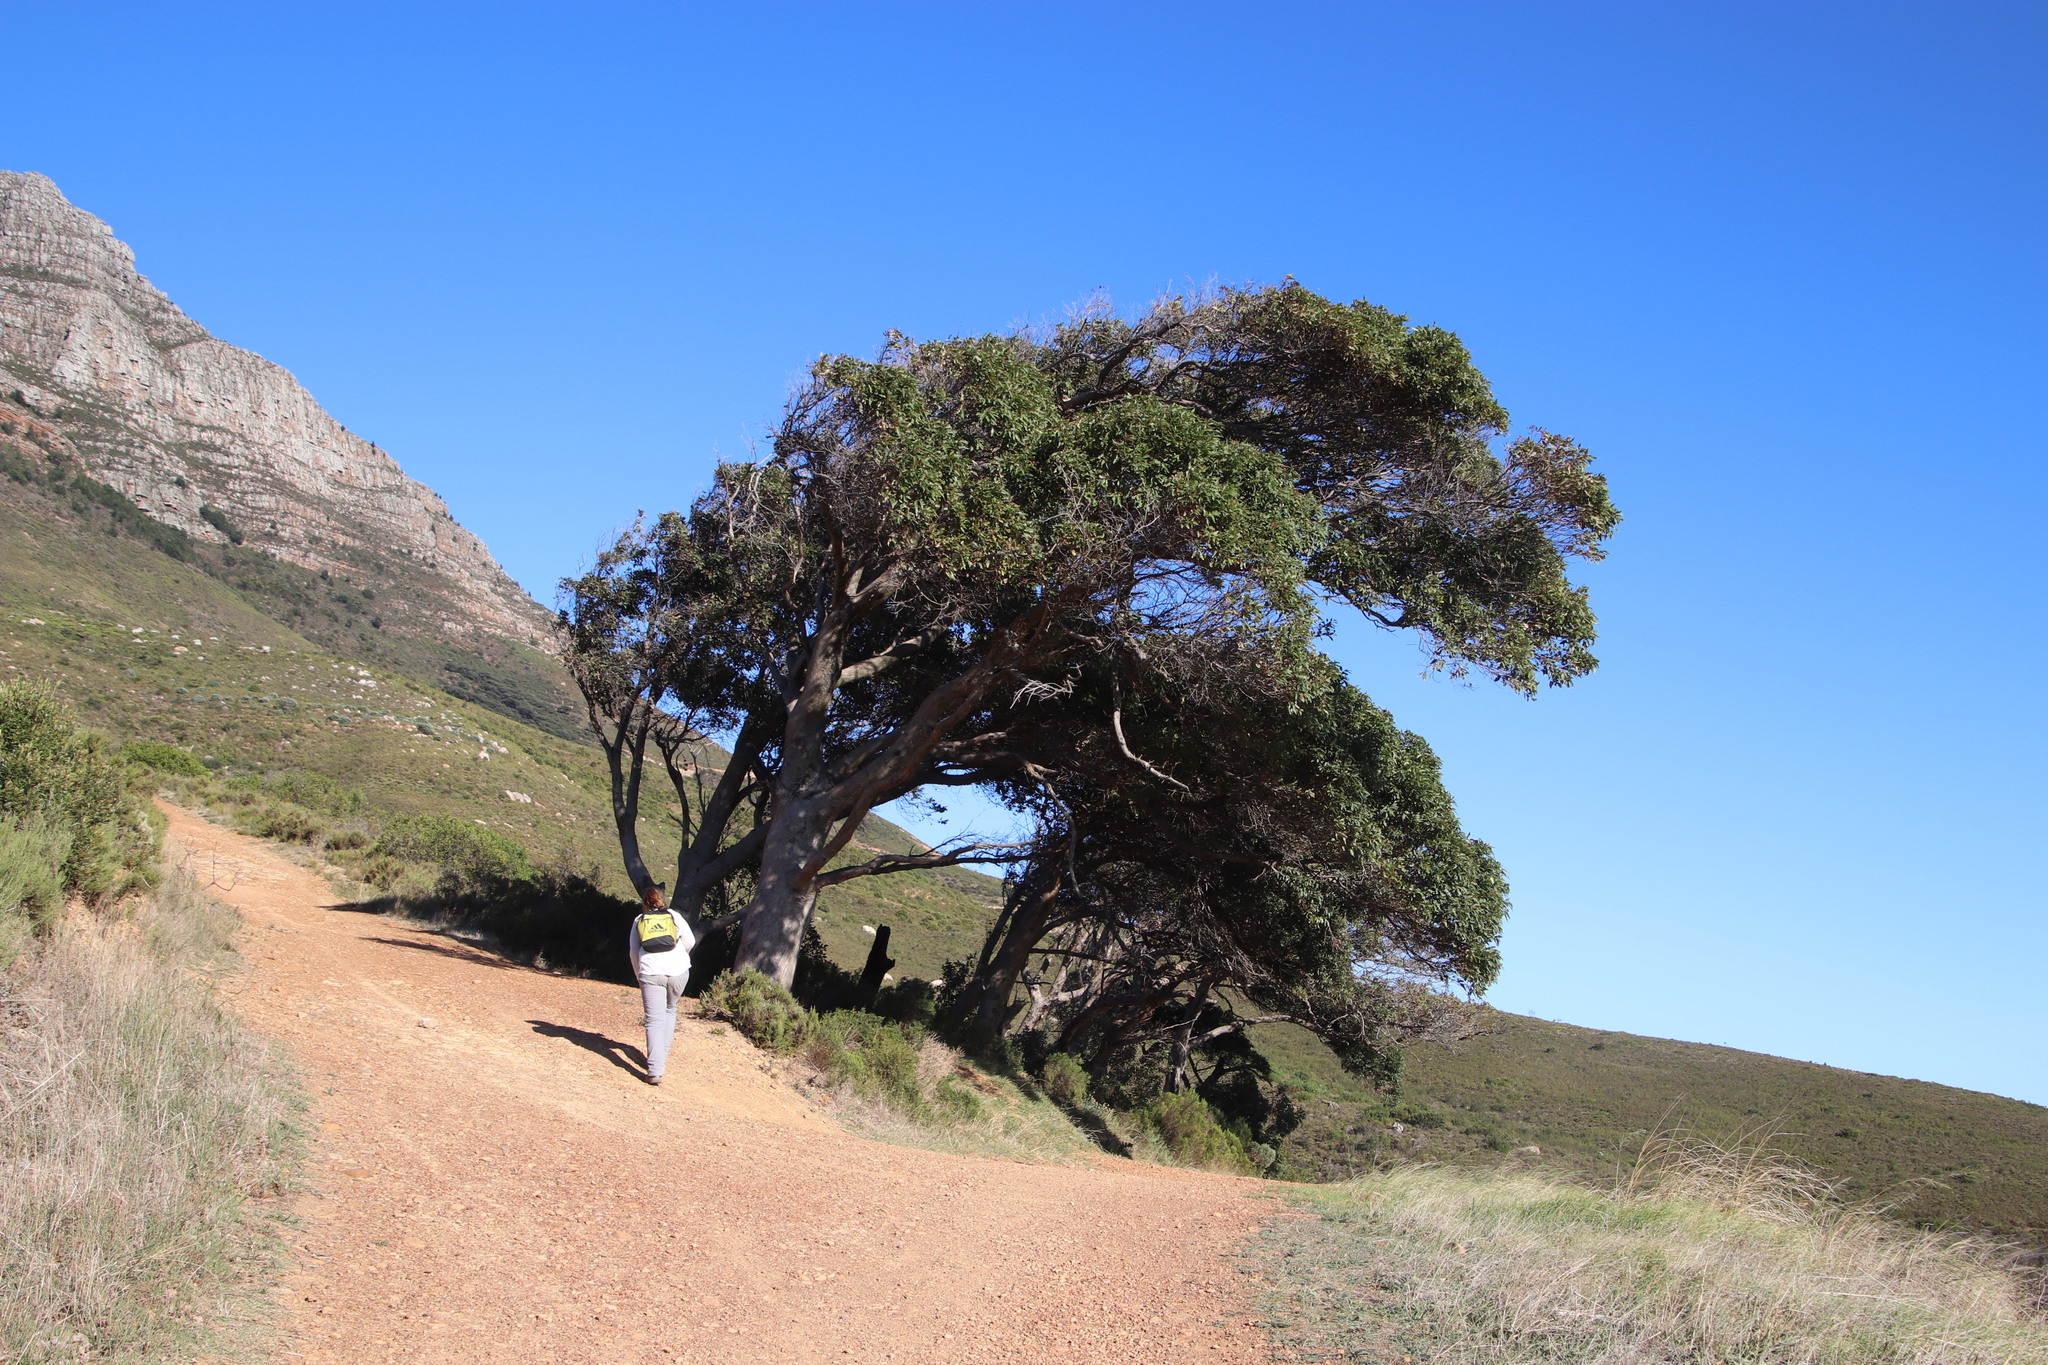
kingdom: Plantae
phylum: Tracheophyta
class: Magnoliopsida
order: Myrtales
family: Myrtaceae
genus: Corymbia
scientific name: Corymbia ficifolia
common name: Redflower gum
